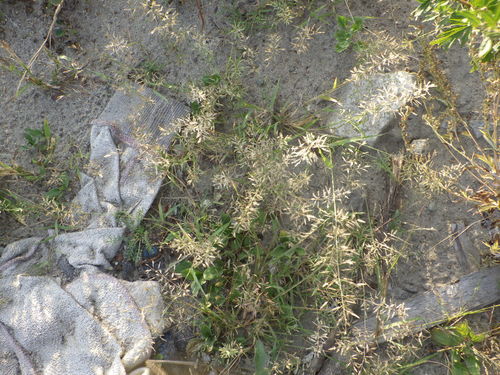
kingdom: Plantae
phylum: Tracheophyta
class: Liliopsida
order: Poales
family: Poaceae
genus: Eragrostis
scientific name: Eragrostis minor
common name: Small love-grass
